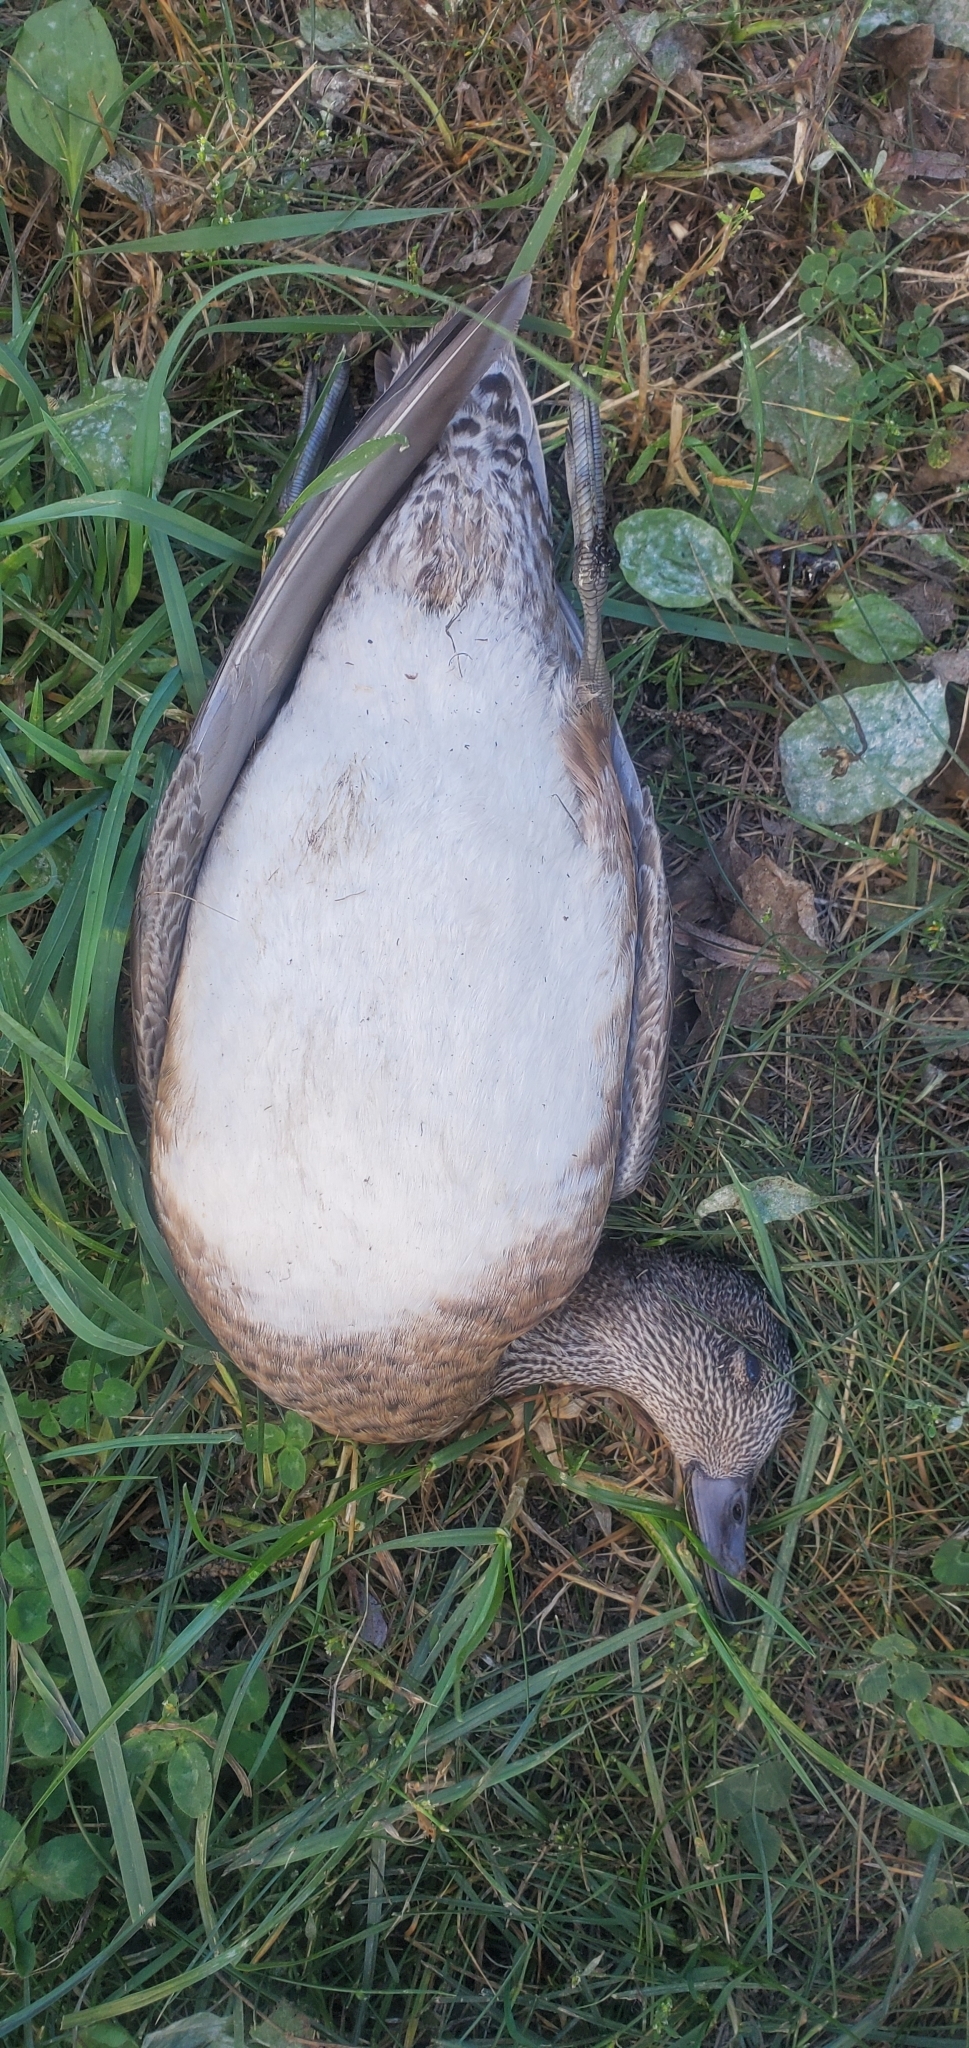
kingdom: Animalia
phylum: Chordata
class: Aves
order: Anseriformes
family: Anatidae
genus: Mareca
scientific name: Mareca americana
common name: American wigeon
